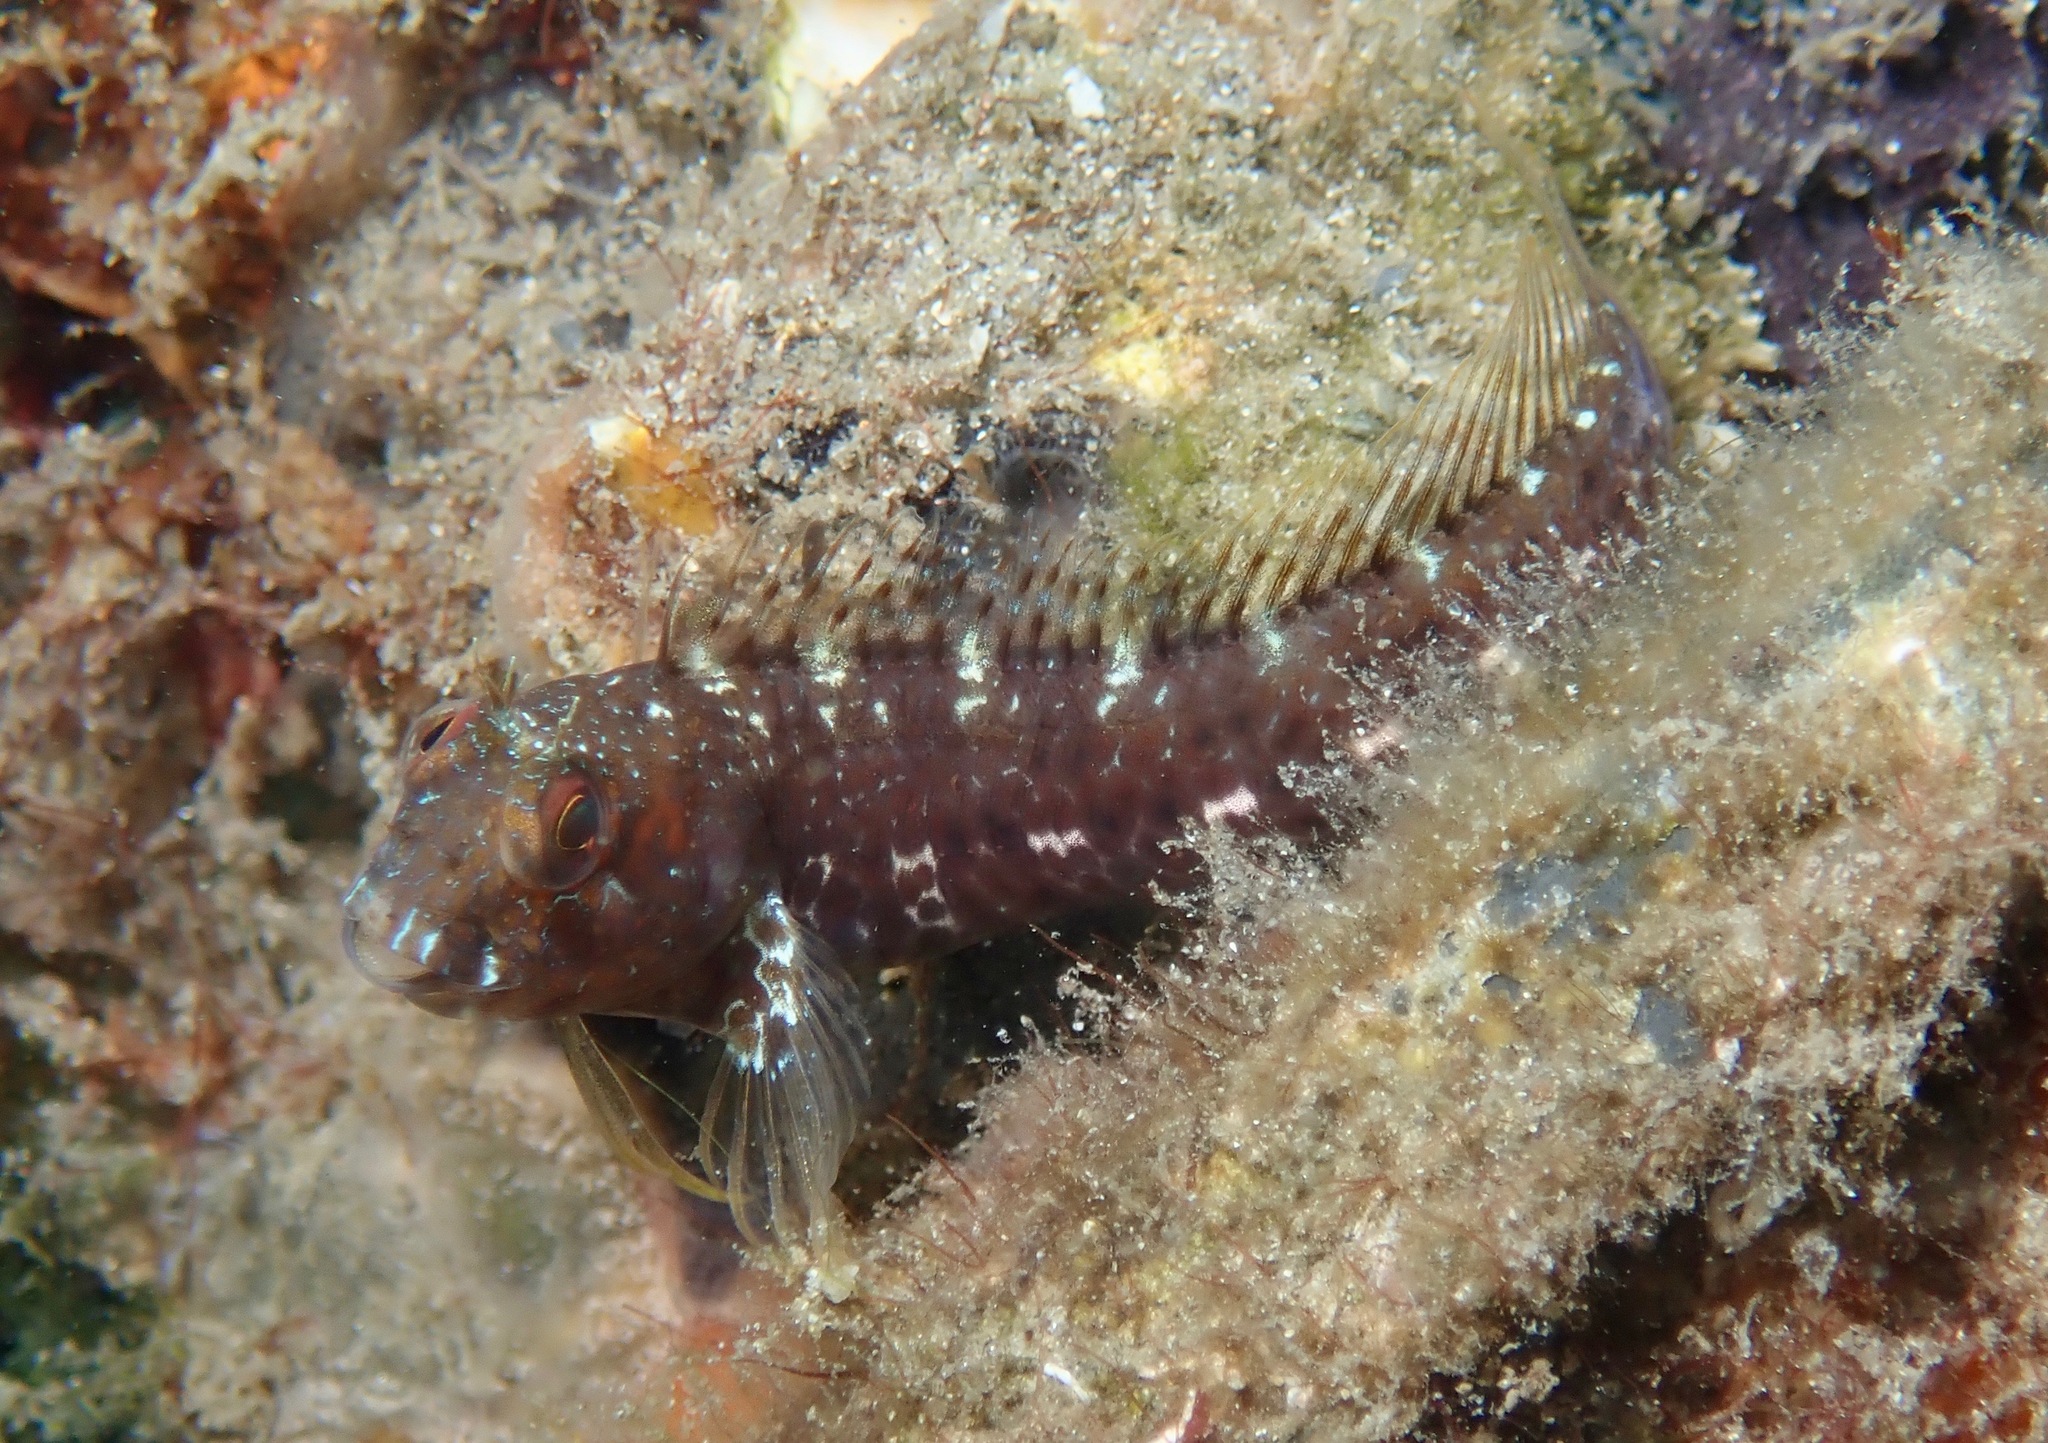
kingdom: Animalia
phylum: Chordata
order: Perciformes
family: Blenniidae
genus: Parablennius
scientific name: Parablennius marmoreus
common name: Seaweed blenny
